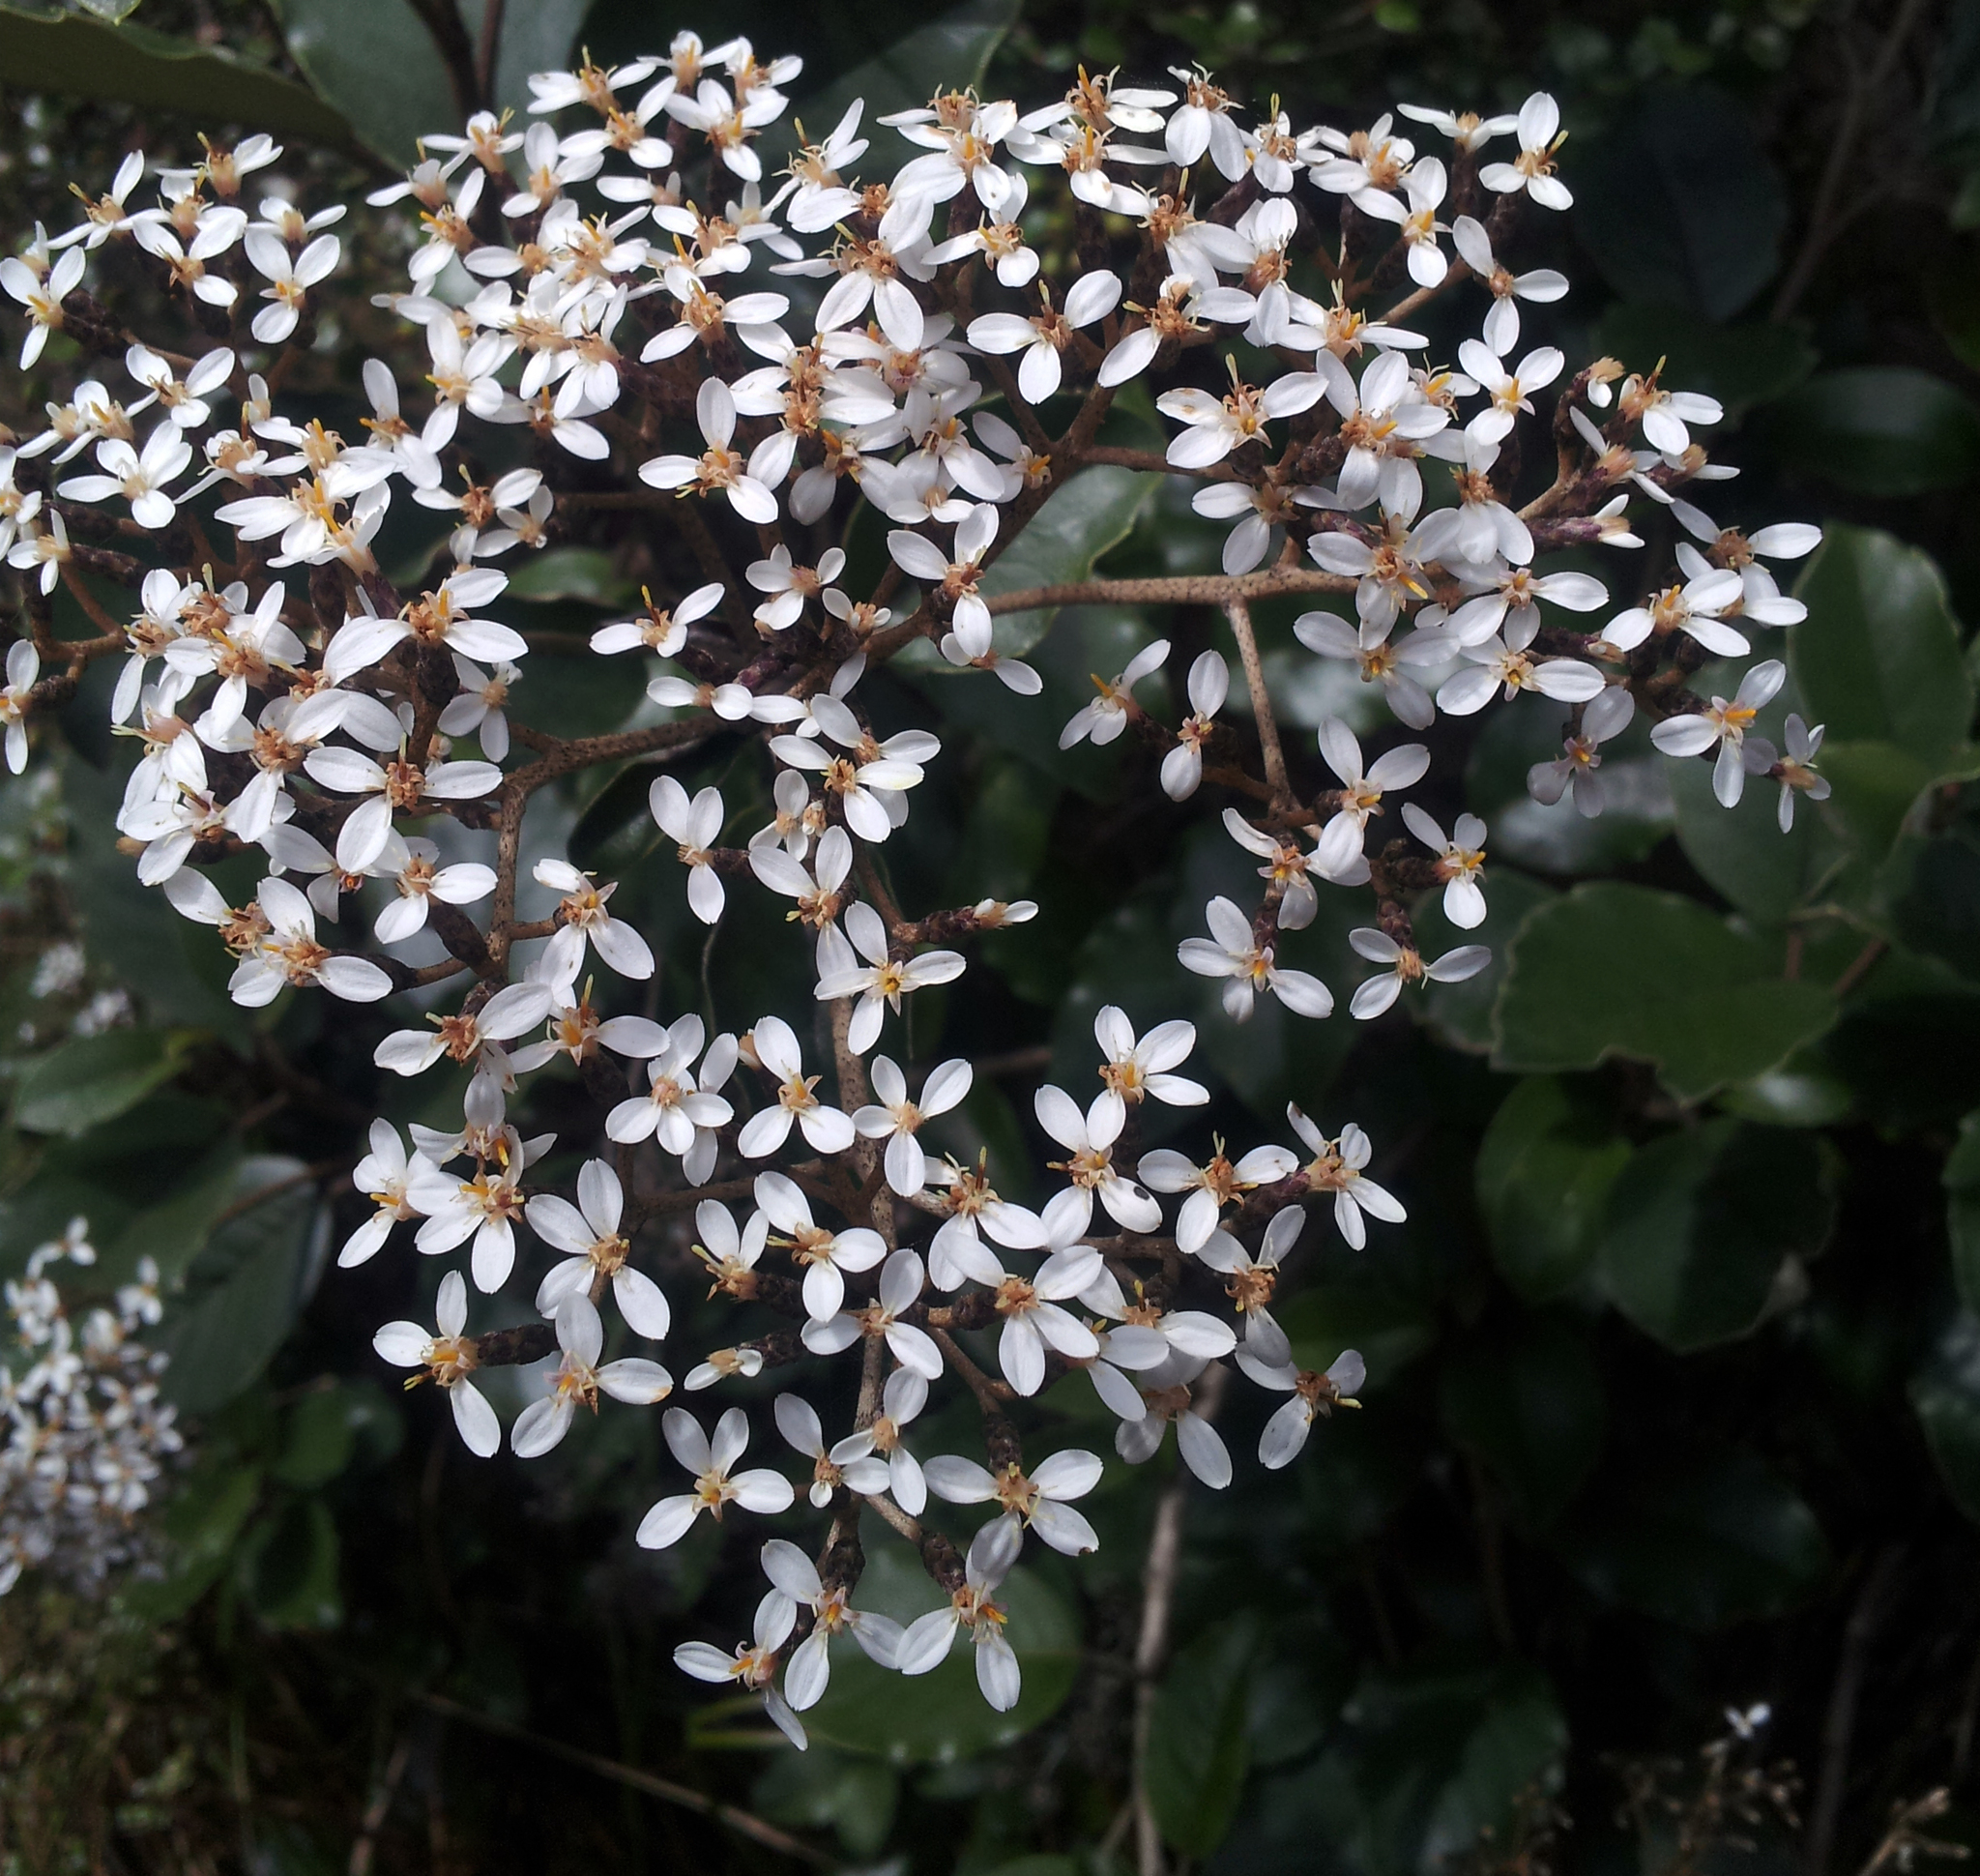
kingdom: Plantae
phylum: Tracheophyta
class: Magnoliopsida
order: Asterales
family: Asteraceae
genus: Olearia
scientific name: Olearia furfuracea
